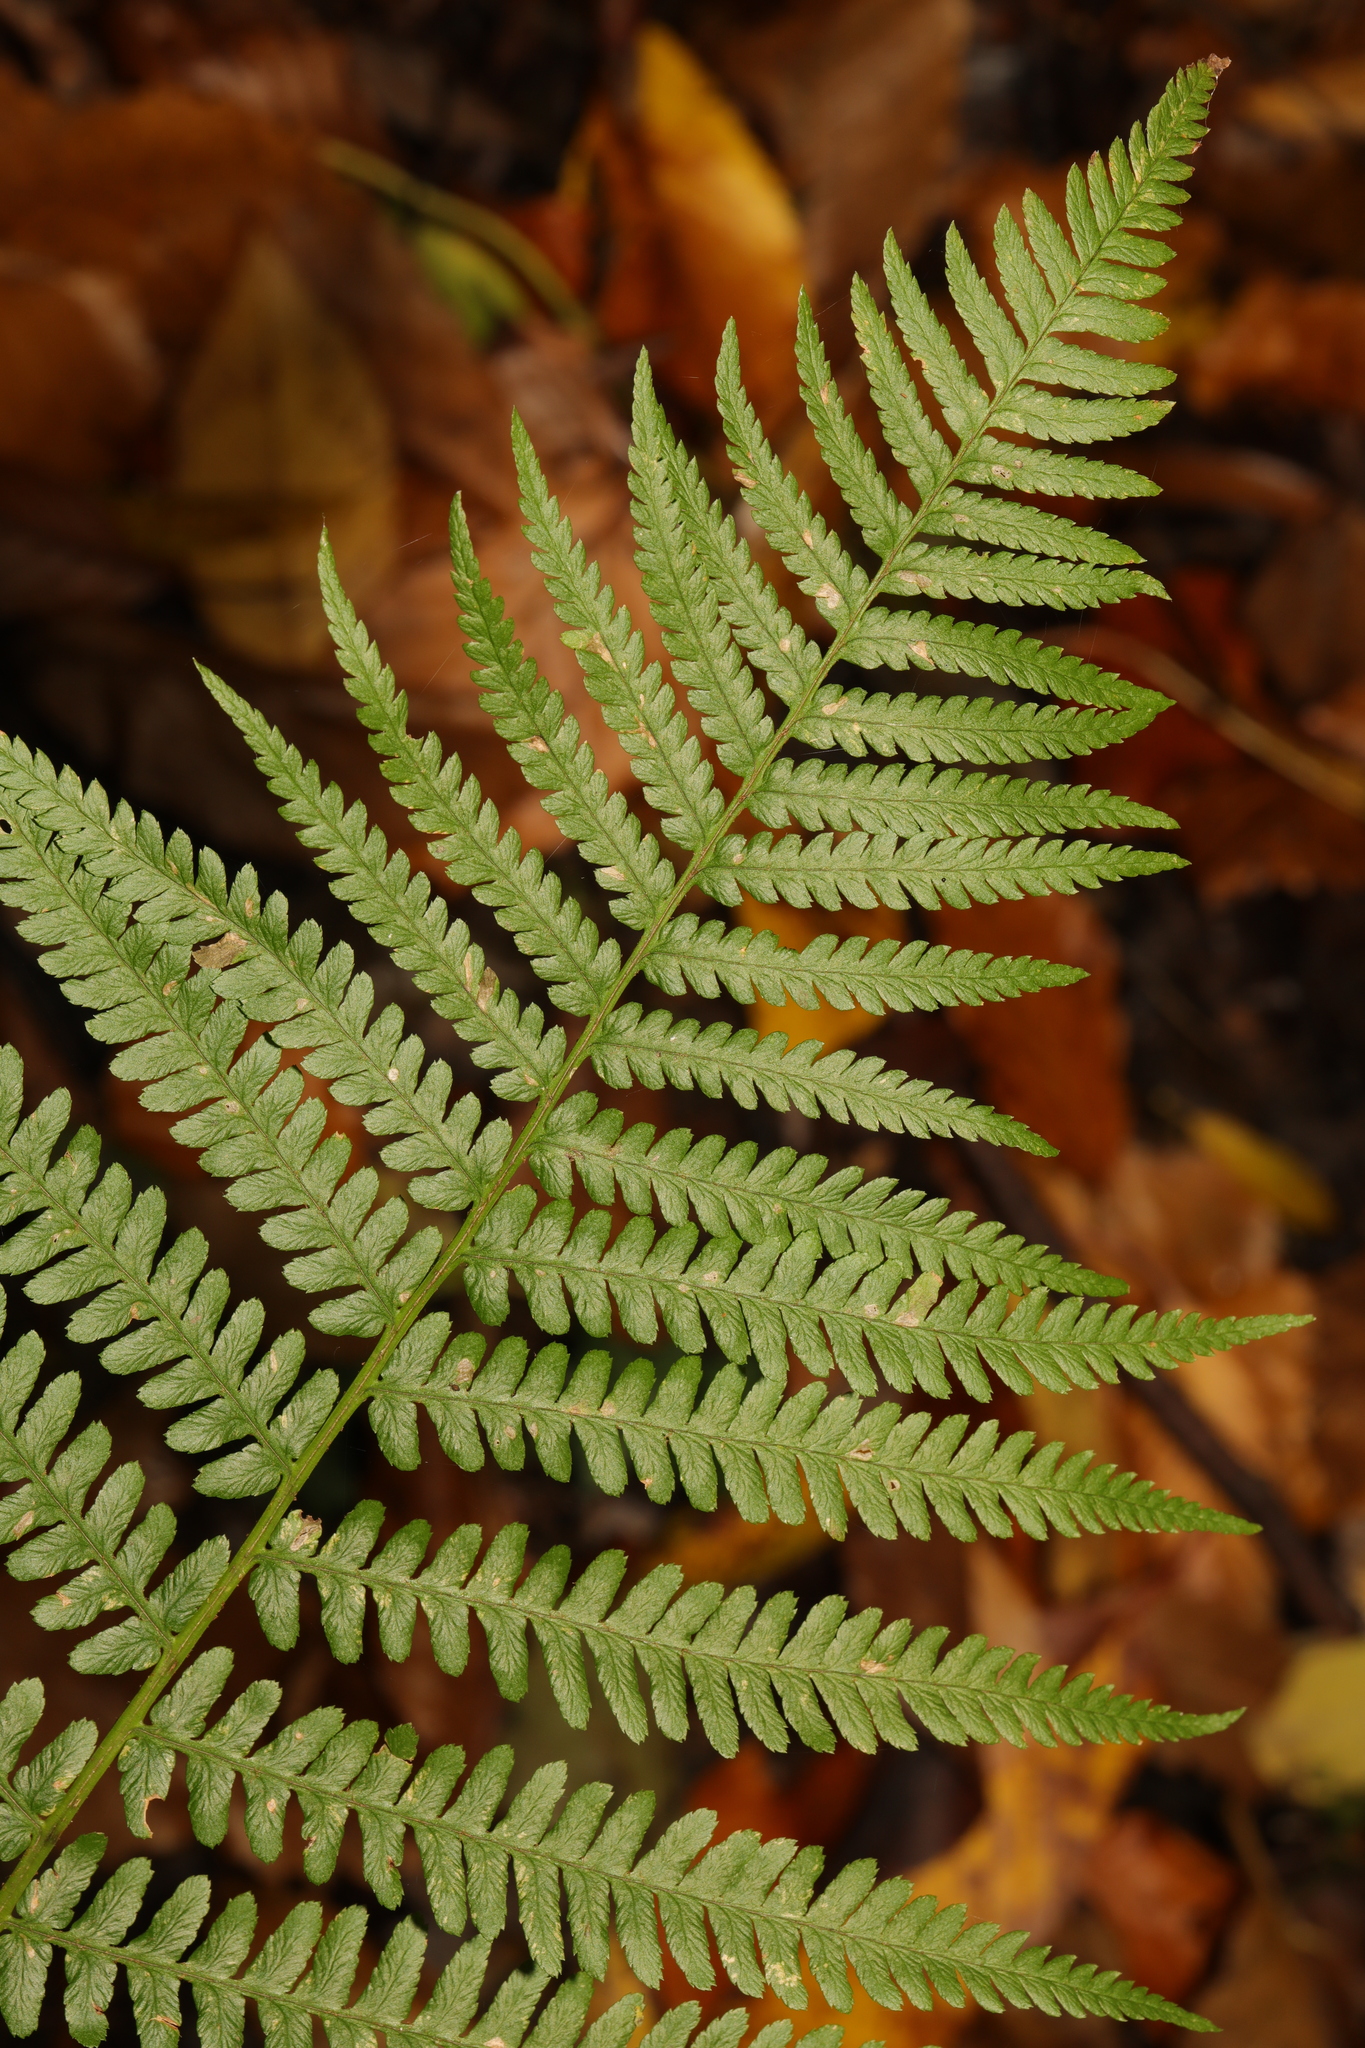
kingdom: Plantae
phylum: Tracheophyta
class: Polypodiopsida
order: Polypodiales
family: Dryopteridaceae
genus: Dryopteris
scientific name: Dryopteris filix-mas
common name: Male fern
